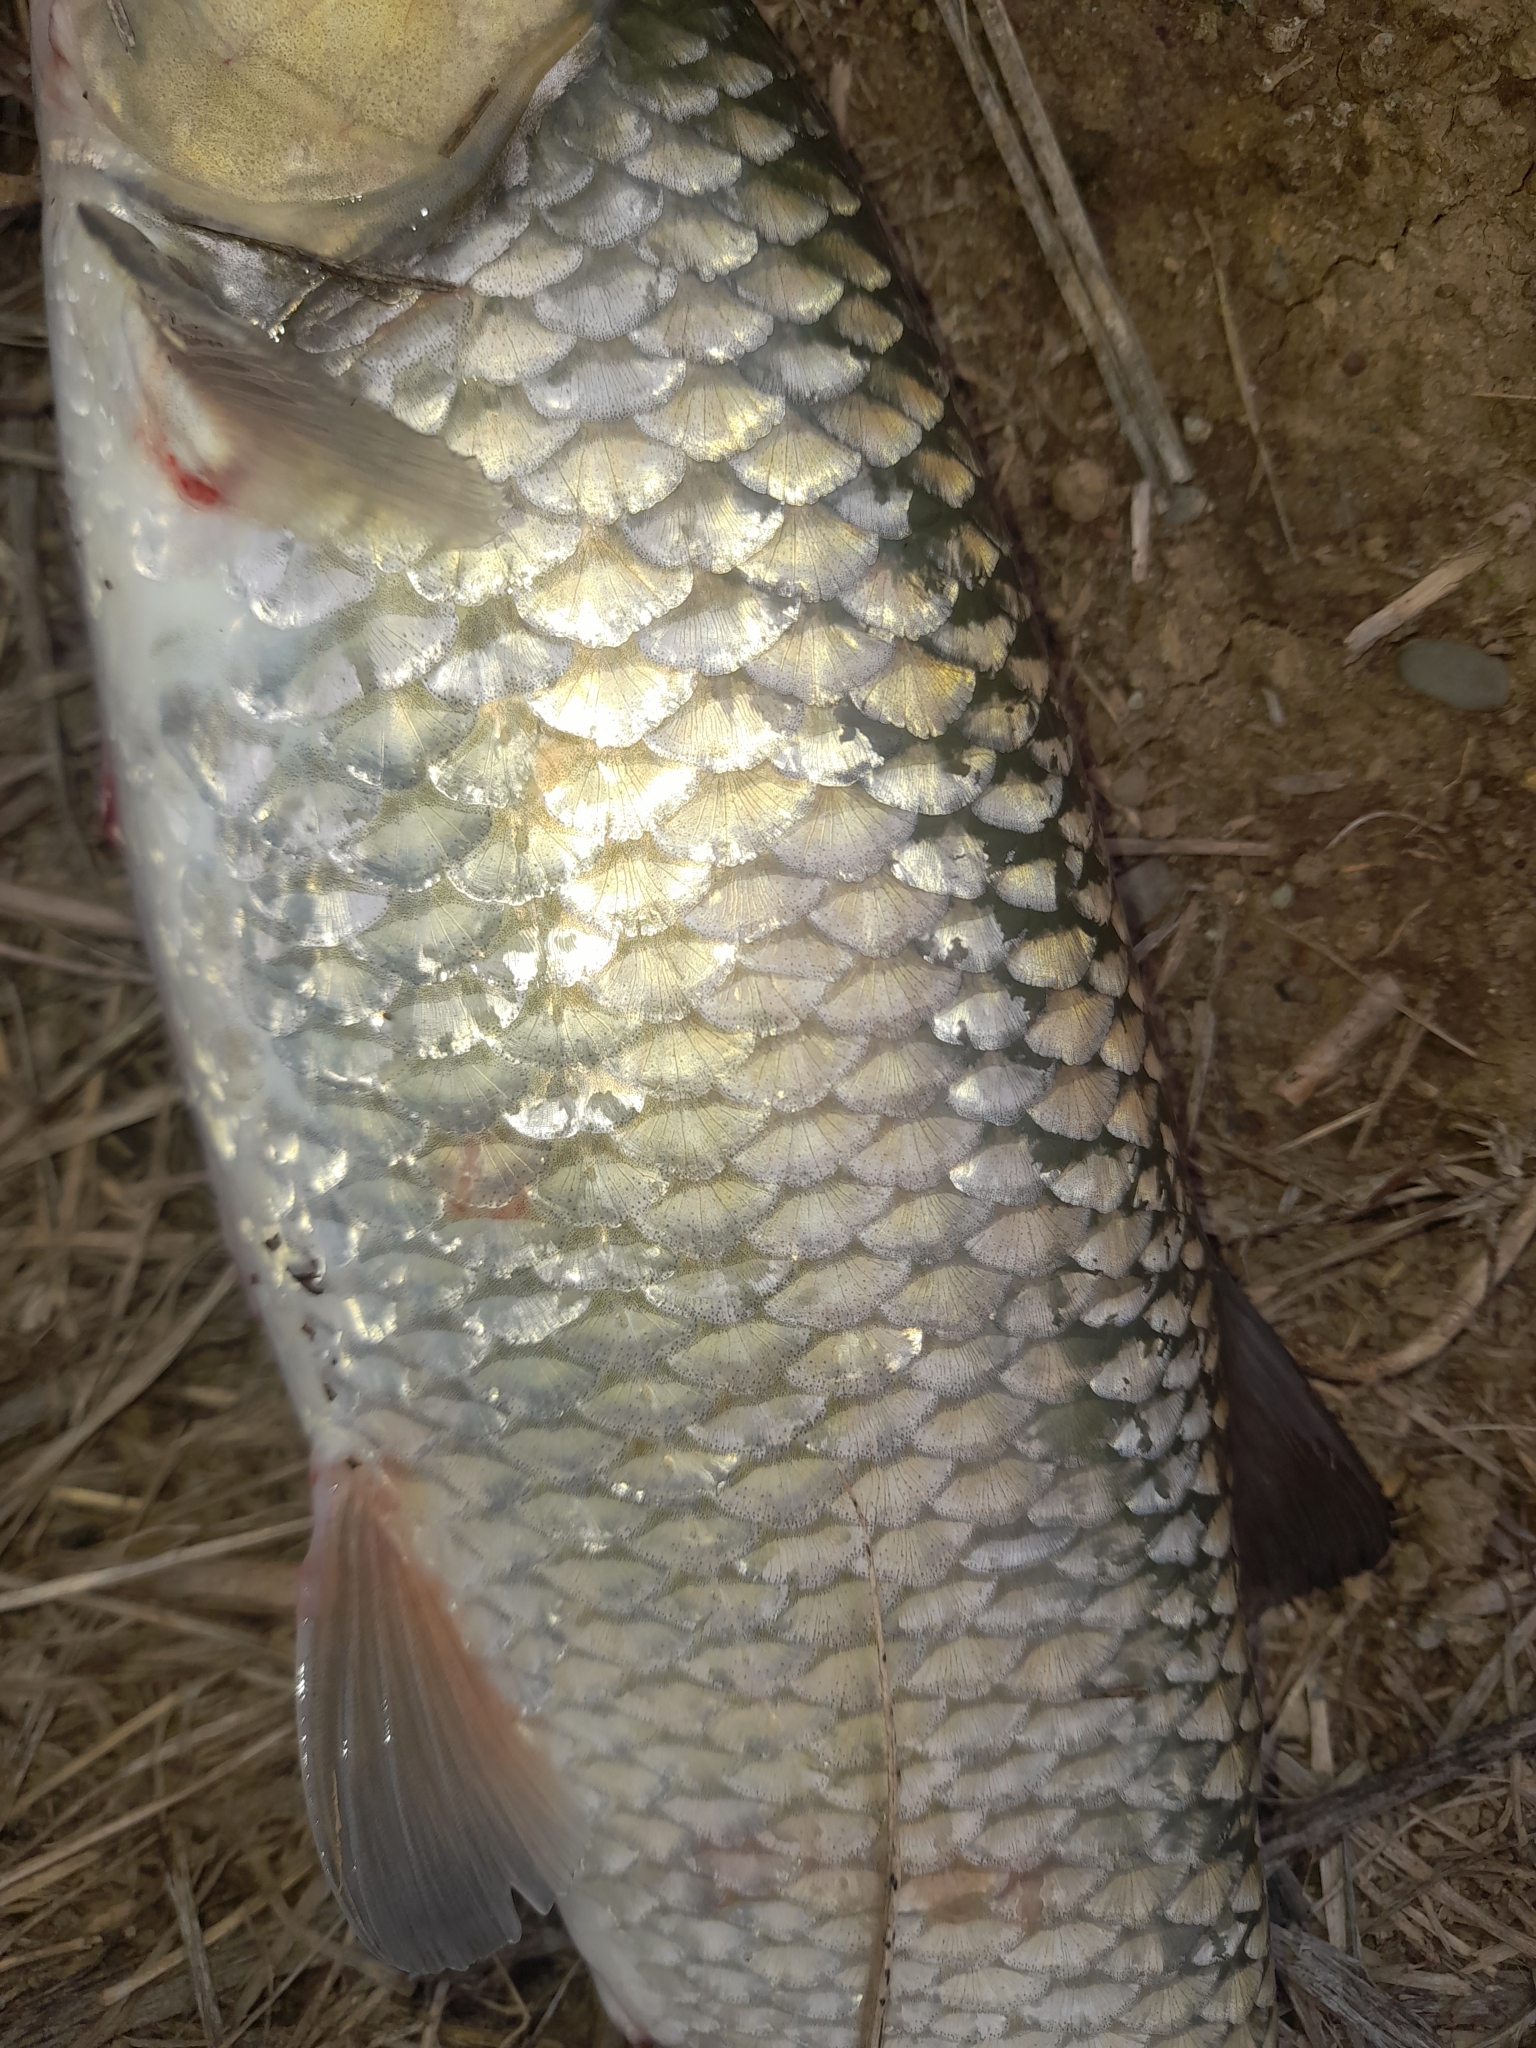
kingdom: Animalia
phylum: Chordata
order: Cypriniformes
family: Cyprinidae
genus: Squalius
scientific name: Squalius squalus
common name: Italian chub
